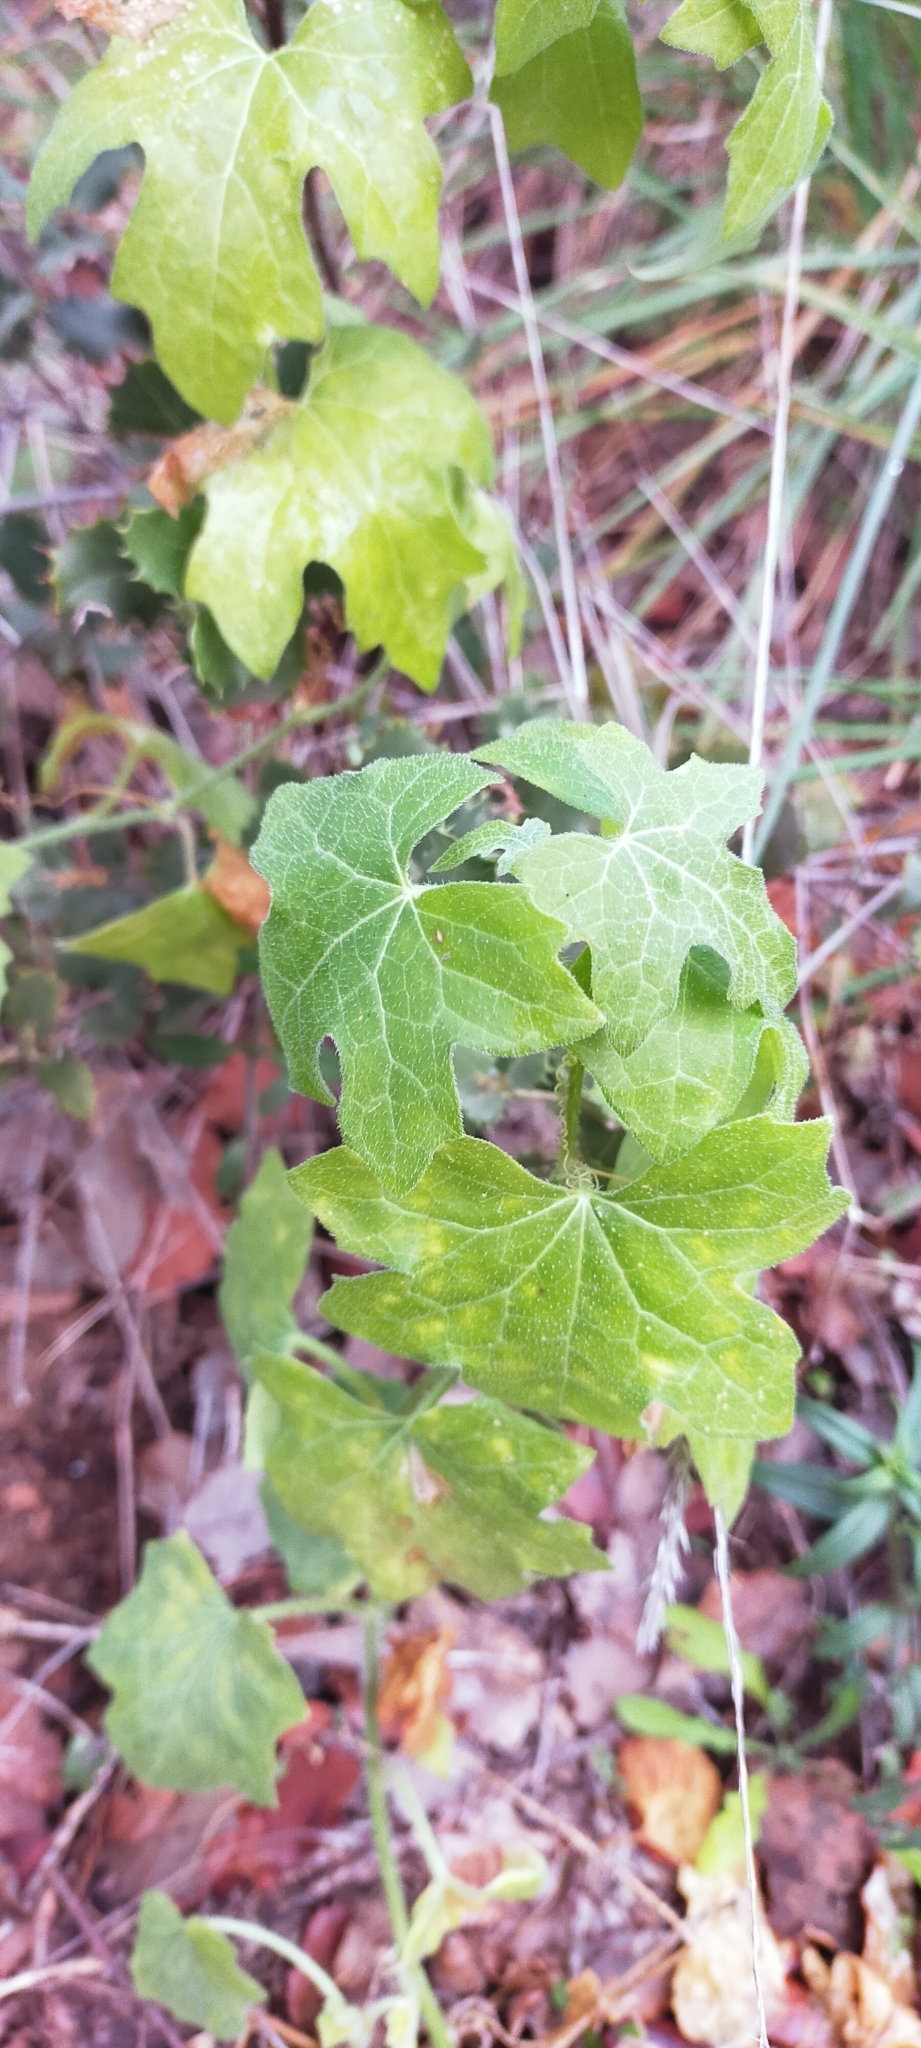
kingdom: Plantae
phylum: Tracheophyta
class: Magnoliopsida
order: Cucurbitales
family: Cucurbitaceae
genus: Bryonia
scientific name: Bryonia dioica
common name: White bryony
